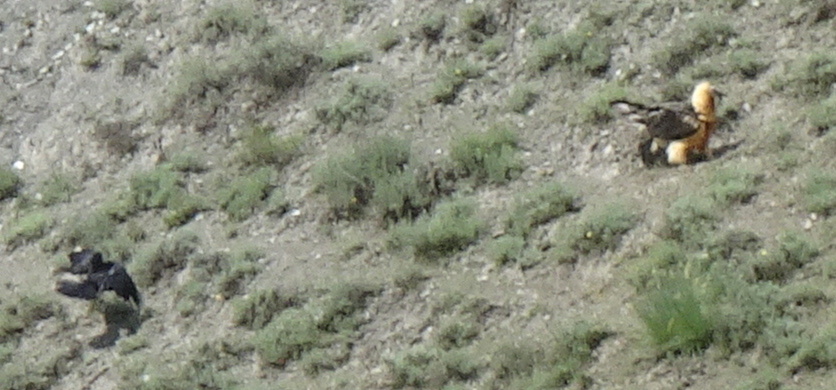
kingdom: Animalia
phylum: Chordata
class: Aves
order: Accipitriformes
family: Accipitridae
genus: Gypaetus
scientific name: Gypaetus barbatus
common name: Bearded vulture
